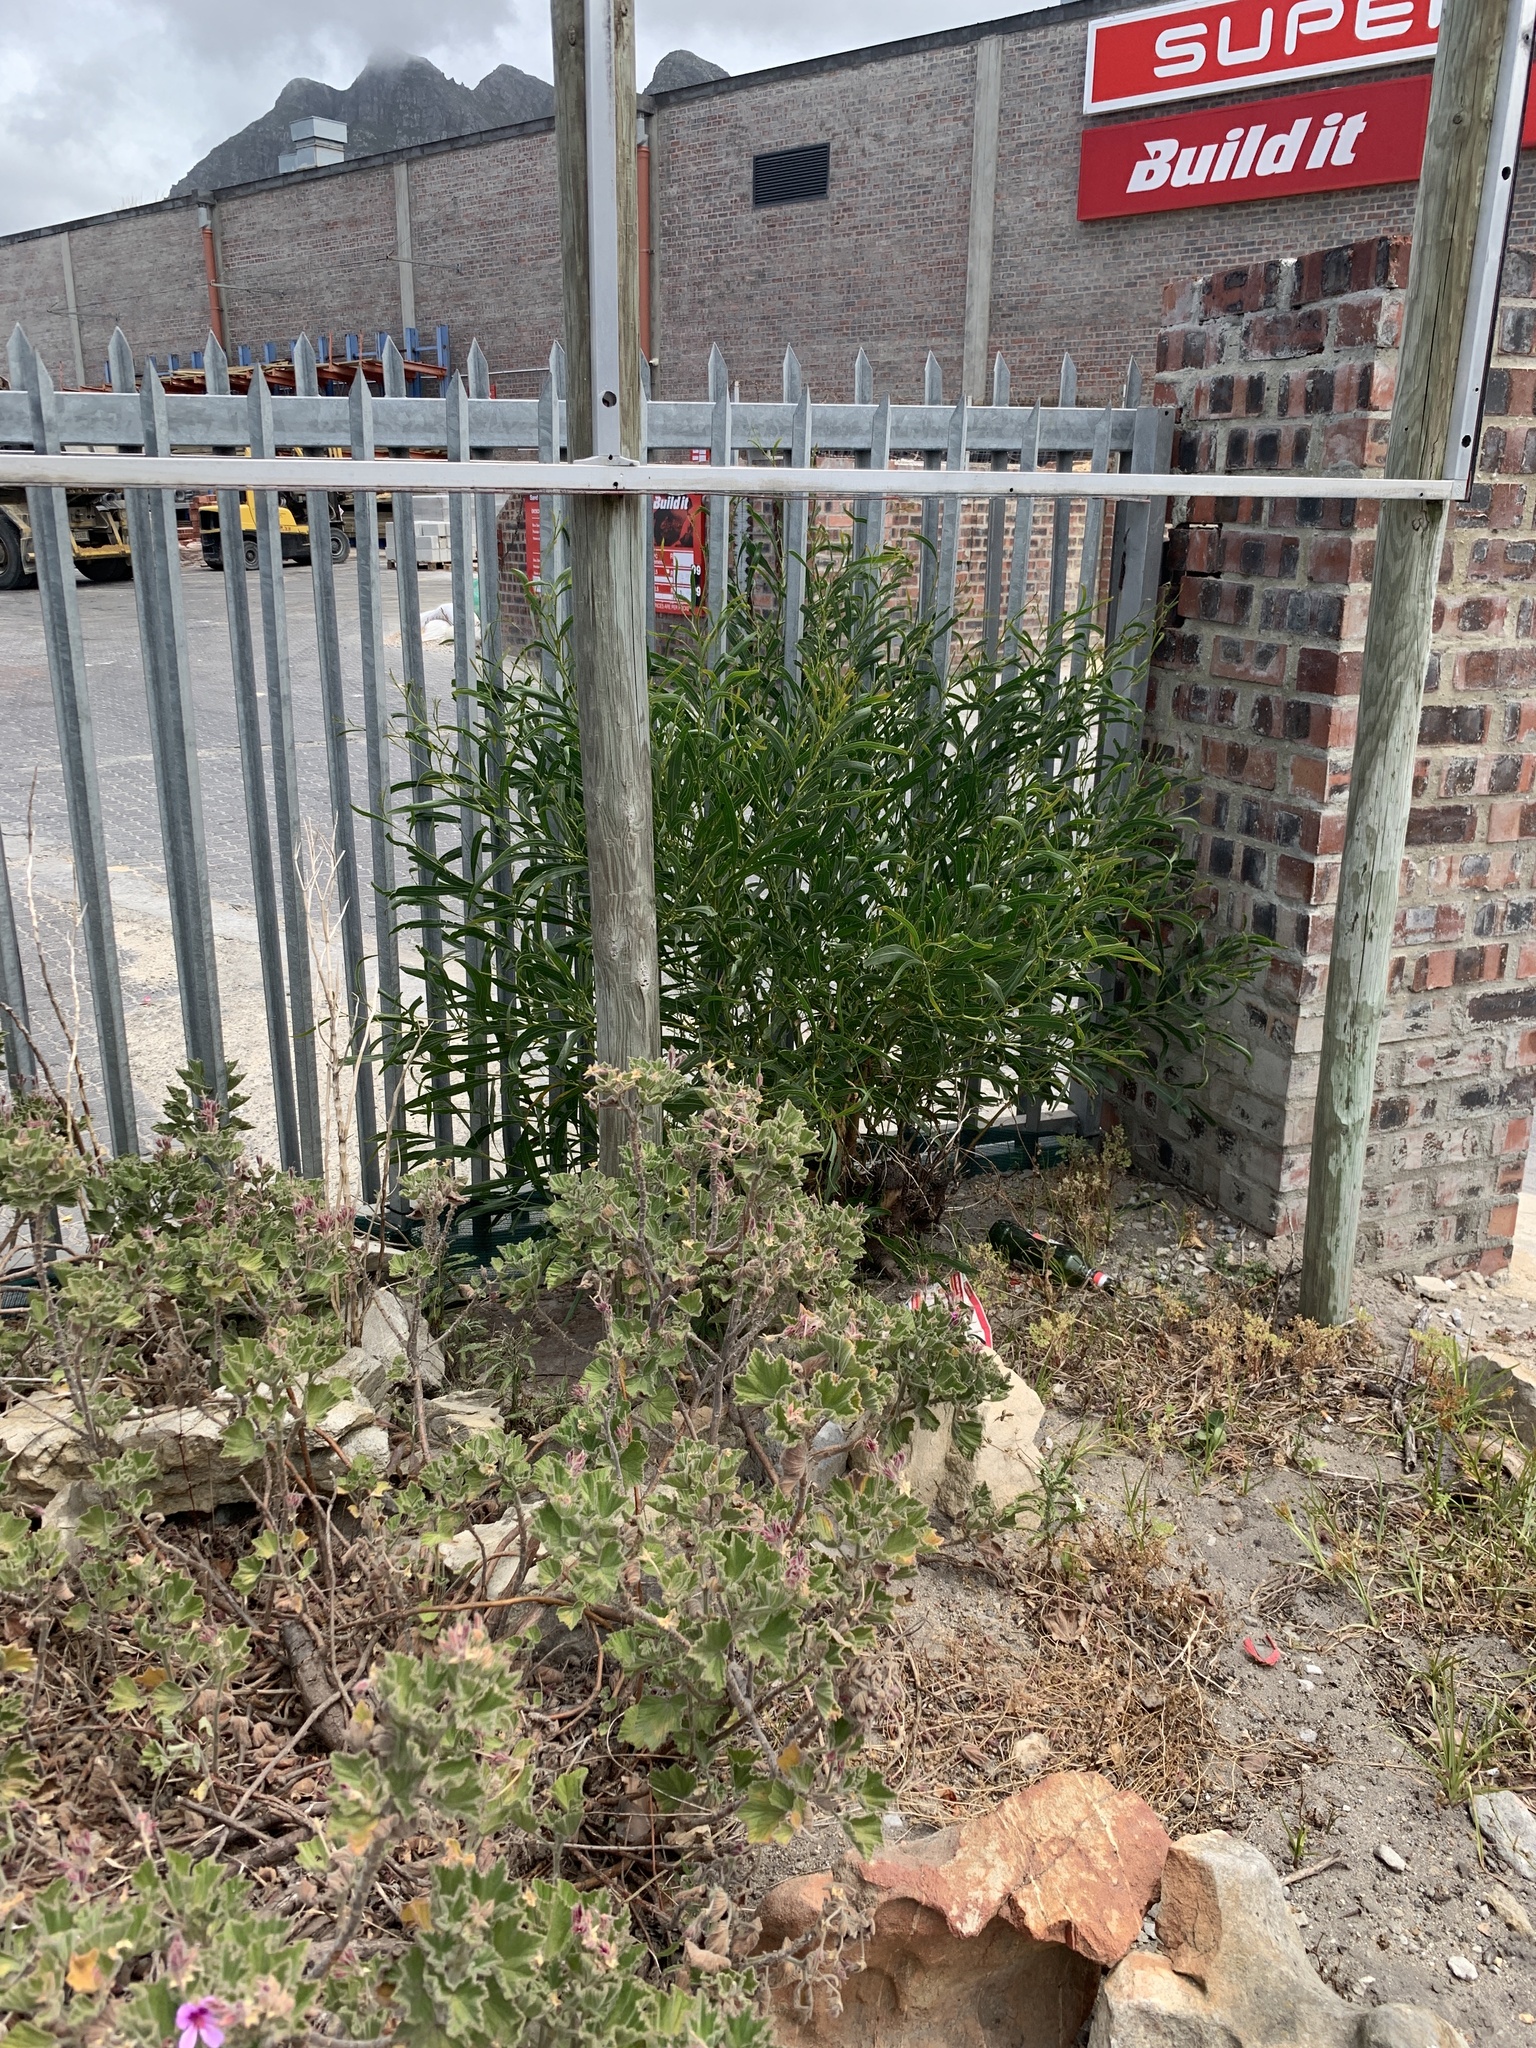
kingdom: Plantae
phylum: Tracheophyta
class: Magnoliopsida
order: Fabales
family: Fabaceae
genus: Acacia
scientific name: Acacia saligna
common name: Orange wattle
